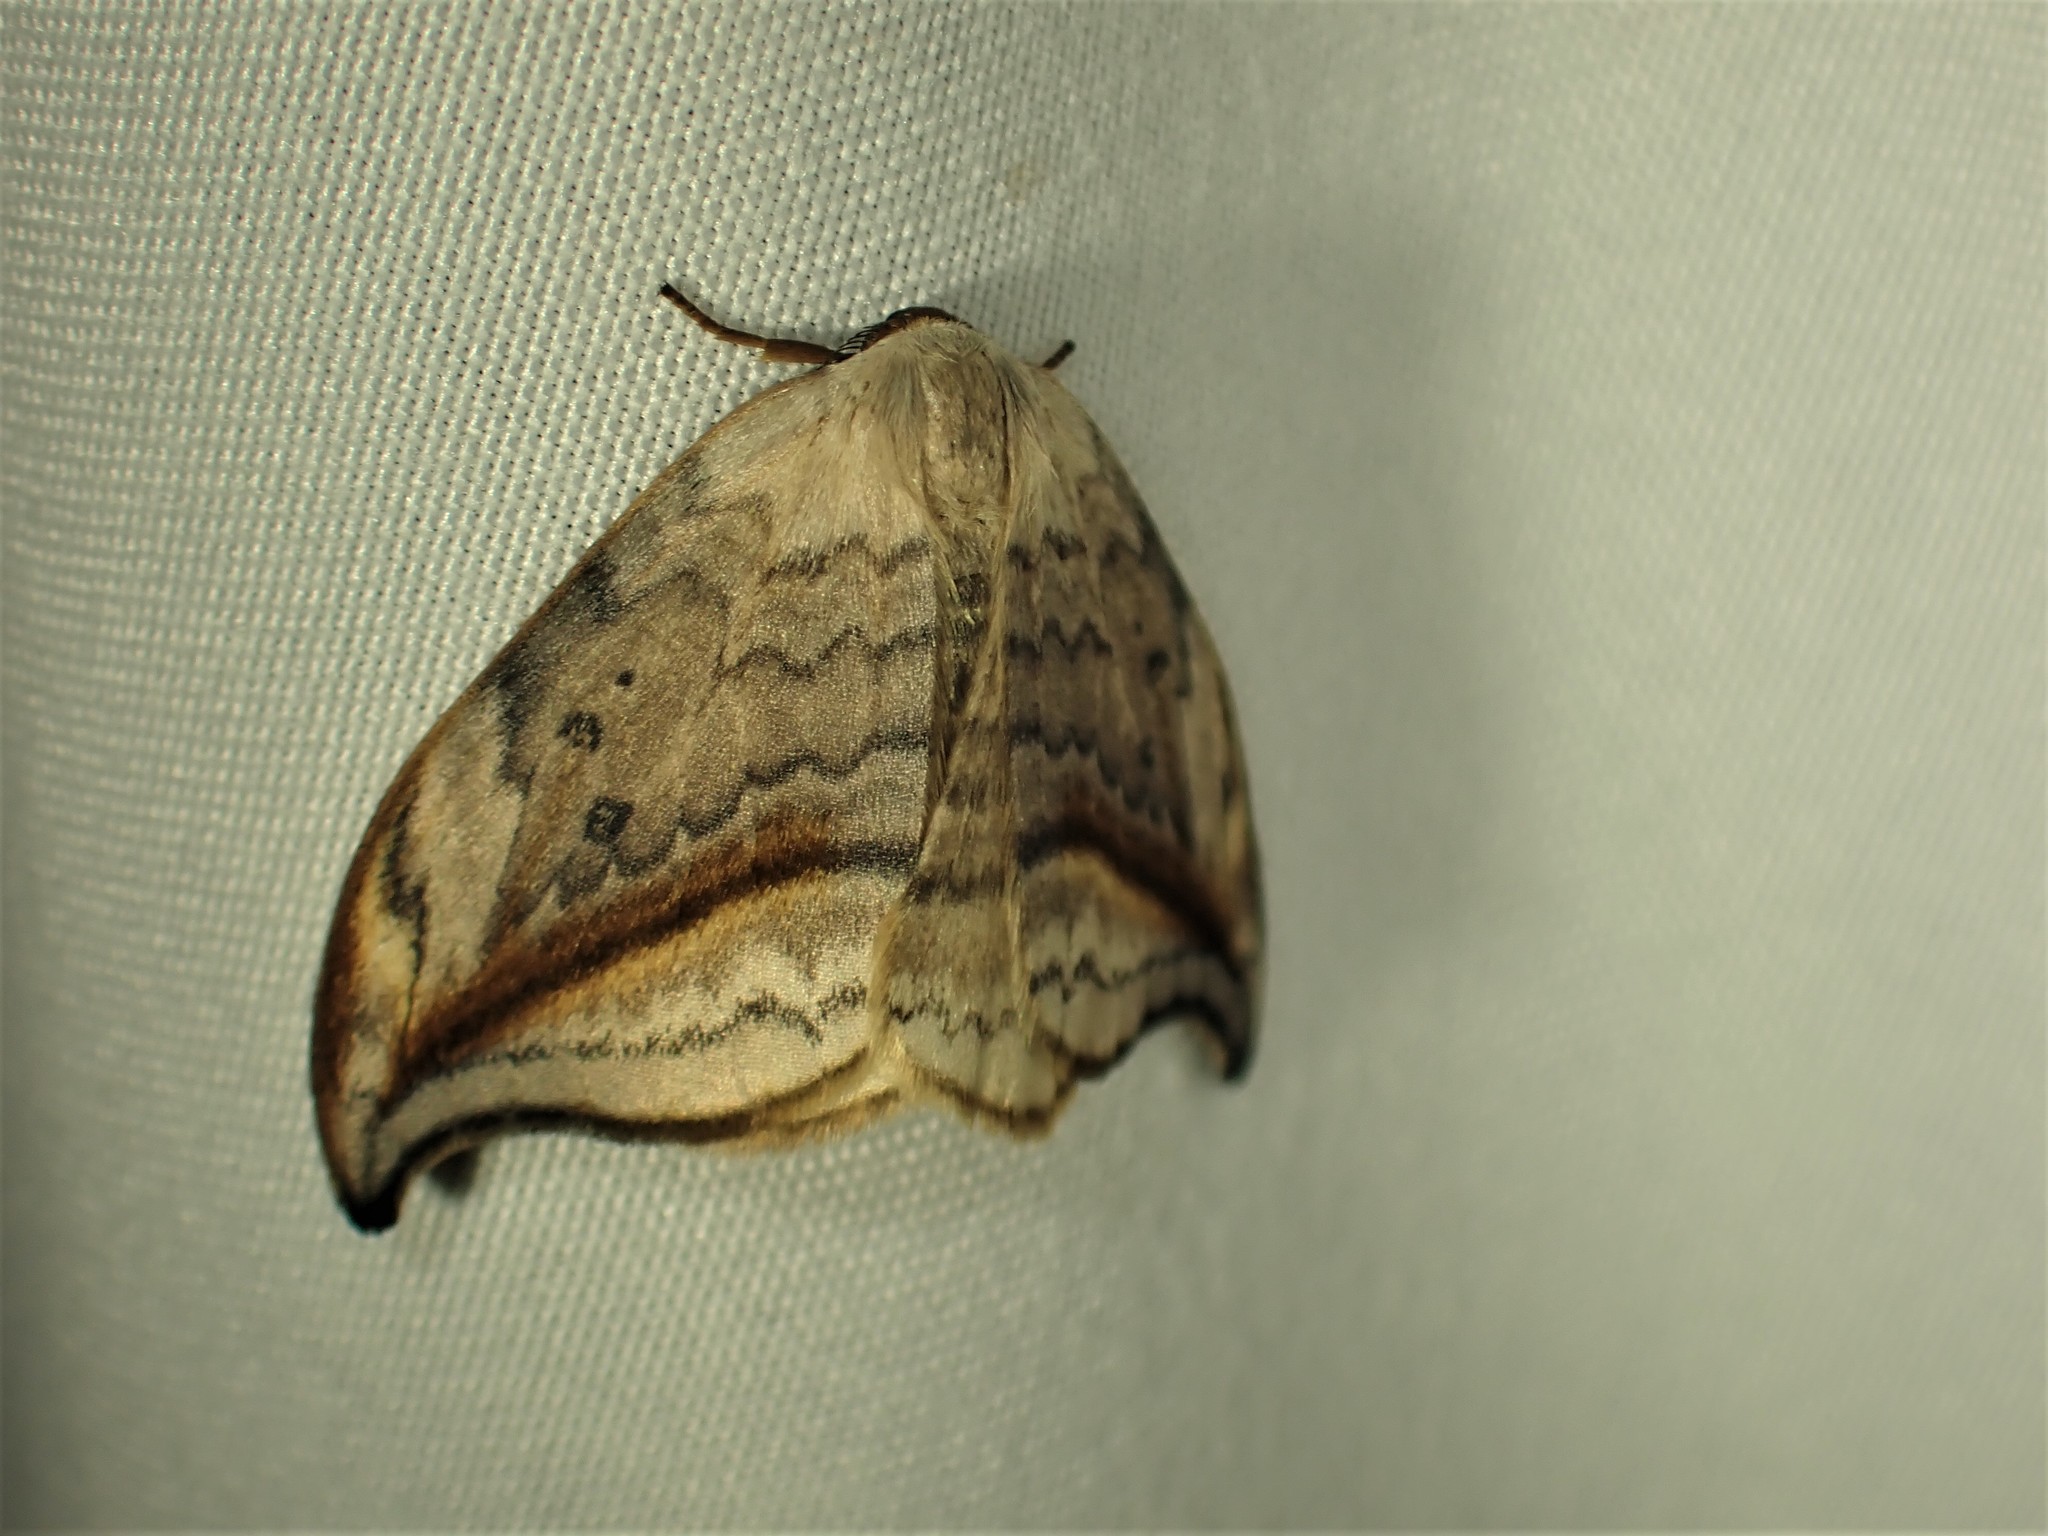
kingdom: Animalia
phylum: Arthropoda
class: Insecta
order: Lepidoptera
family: Drepanidae
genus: Drepana
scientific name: Drepana arcuata
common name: Arched hooktip moth
